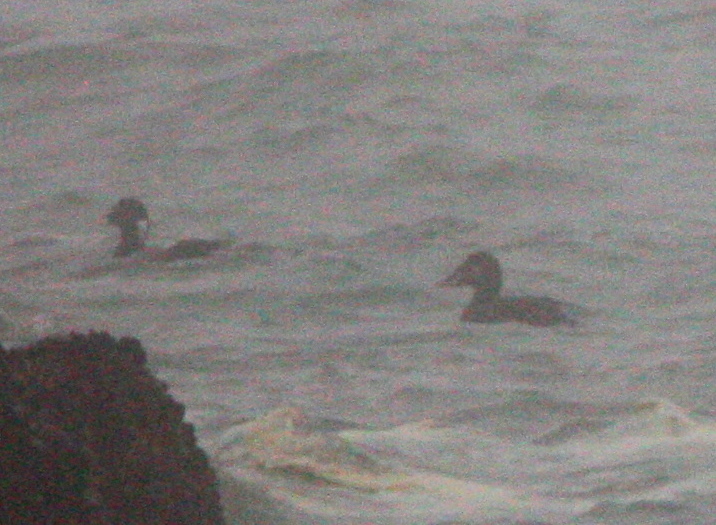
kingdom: Animalia
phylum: Chordata
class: Aves
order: Anseriformes
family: Anatidae
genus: Melanitta
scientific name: Melanitta perspicillata
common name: Surf scoter
